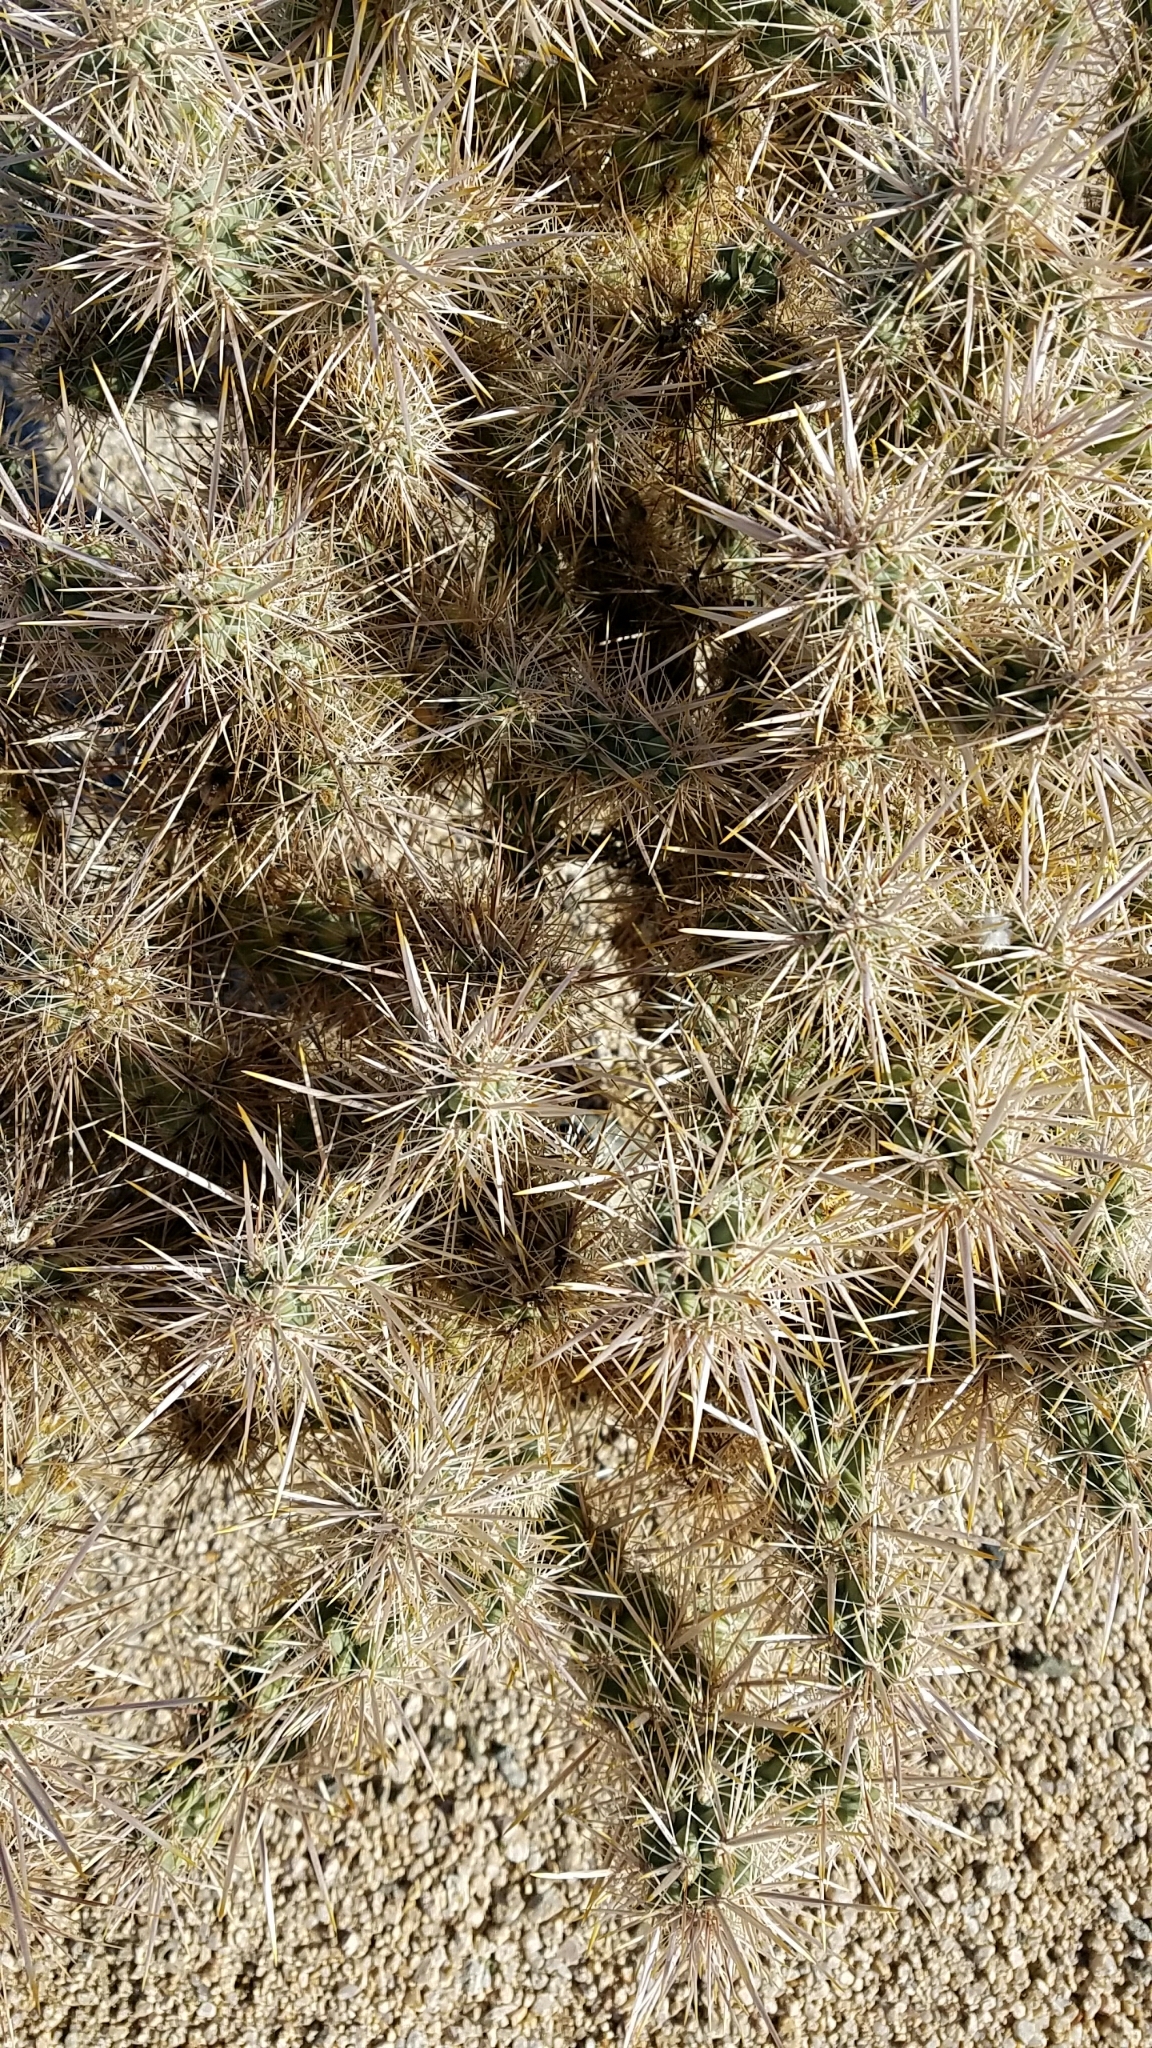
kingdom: Plantae
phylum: Tracheophyta
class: Magnoliopsida
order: Caryophyllales
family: Cactaceae
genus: Cylindropuntia
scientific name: Cylindropuntia echinocarpa
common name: Ground cholla
